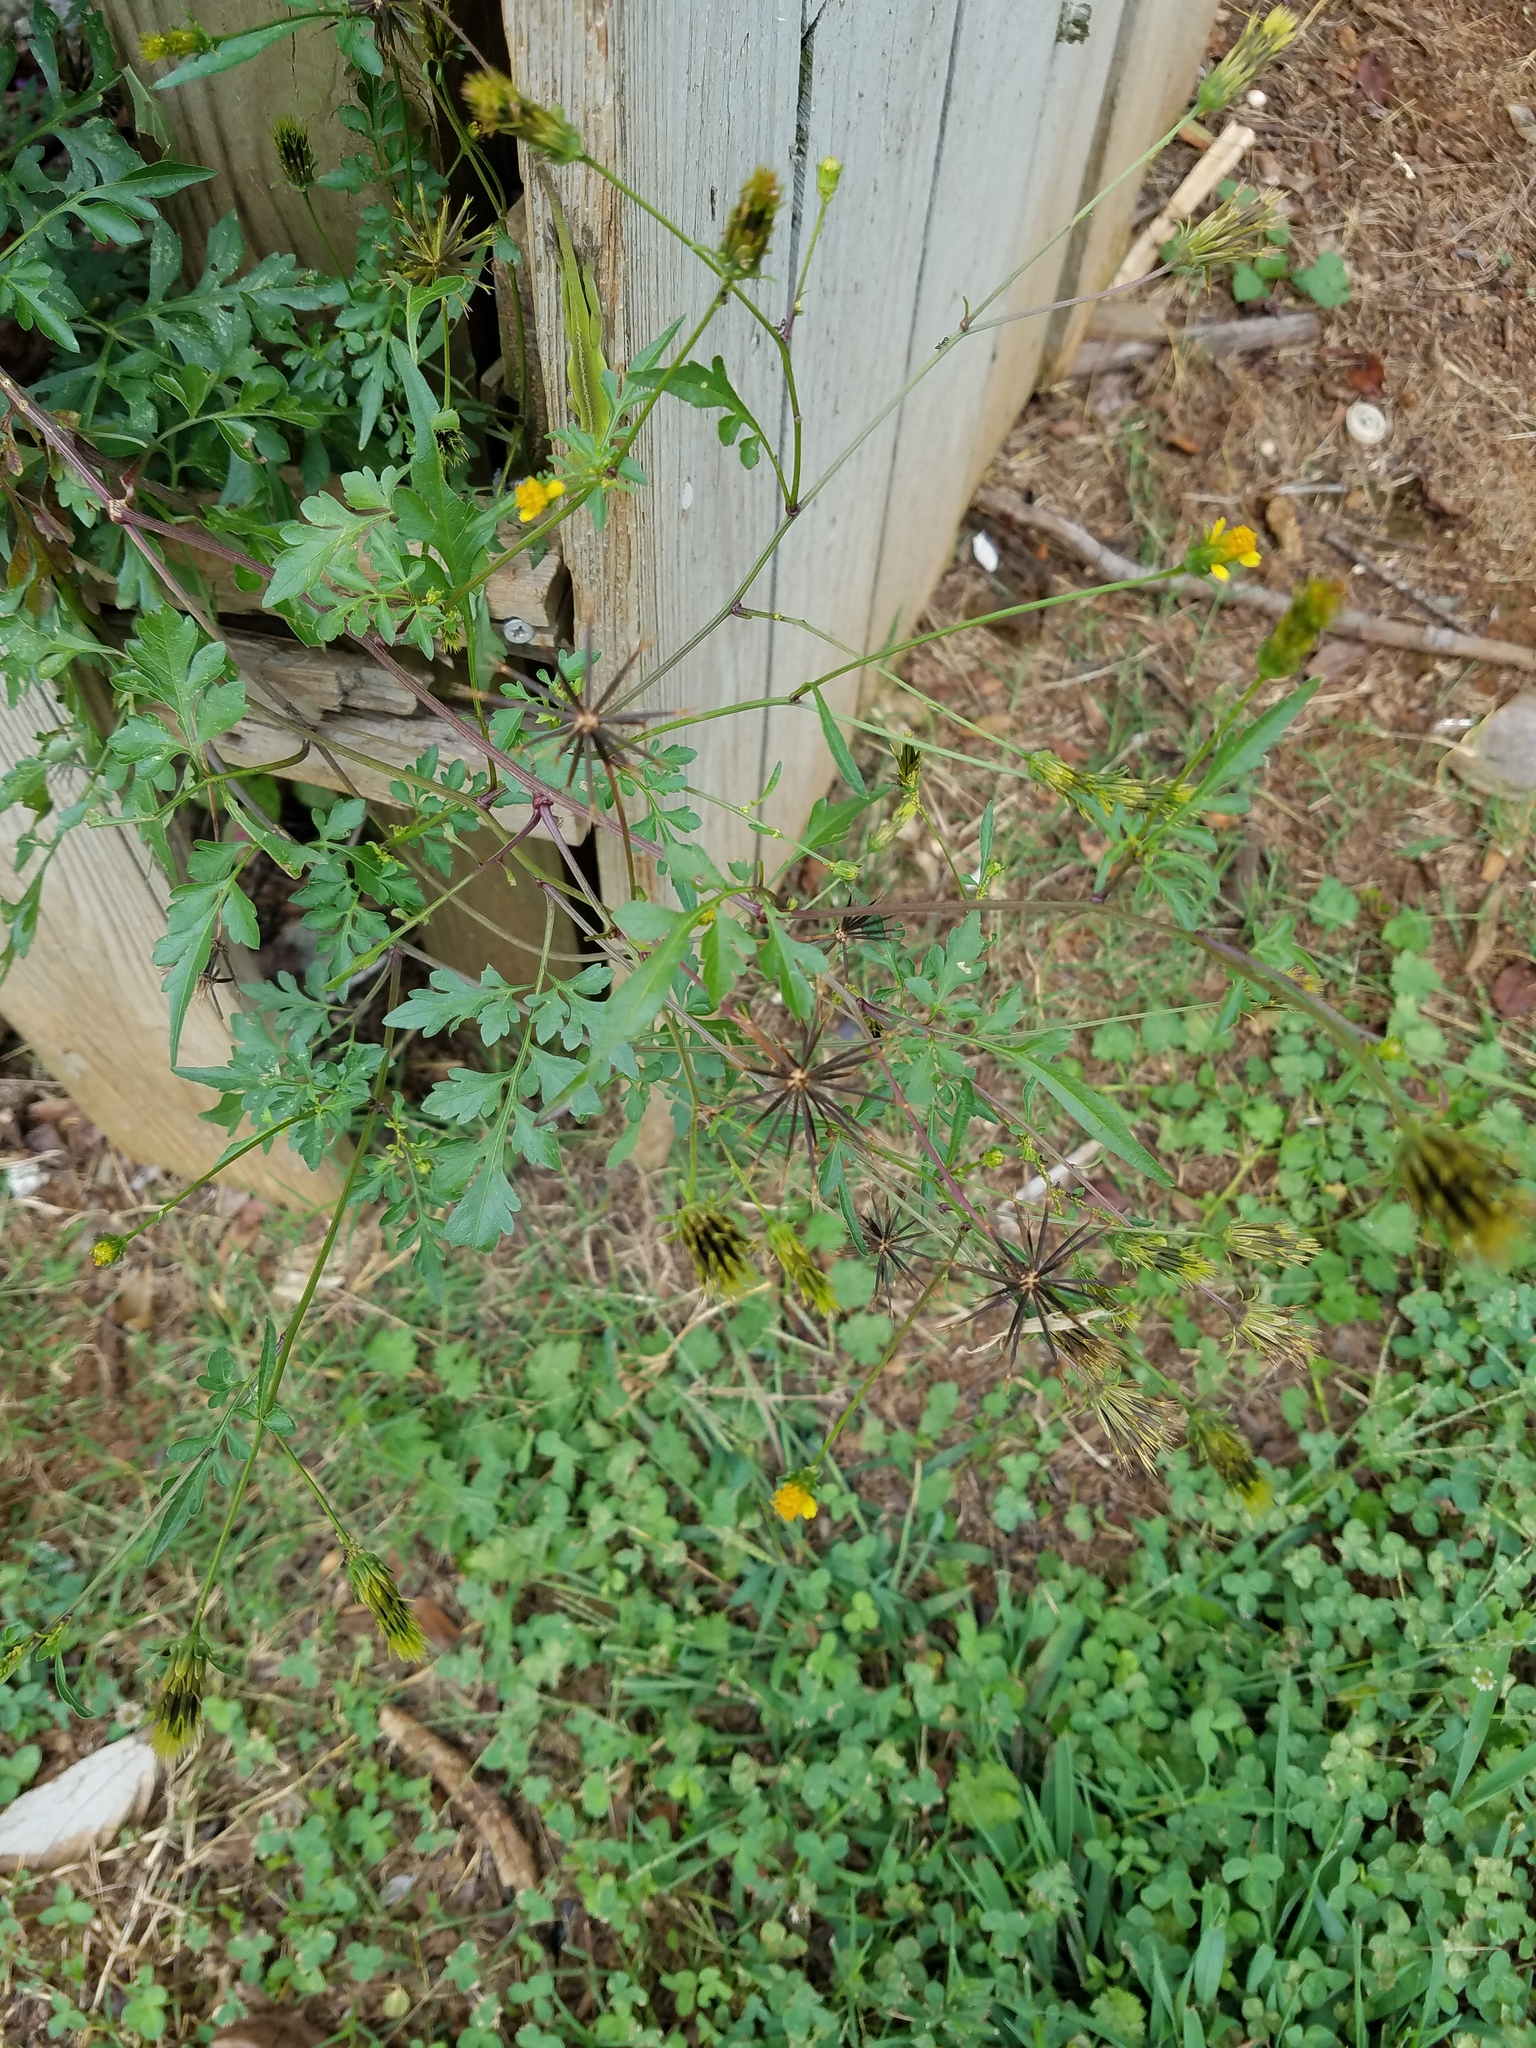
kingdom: Plantae
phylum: Tracheophyta
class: Magnoliopsida
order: Asterales
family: Asteraceae
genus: Bidens
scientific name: Bidens bipinnata
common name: Spanish-needles
